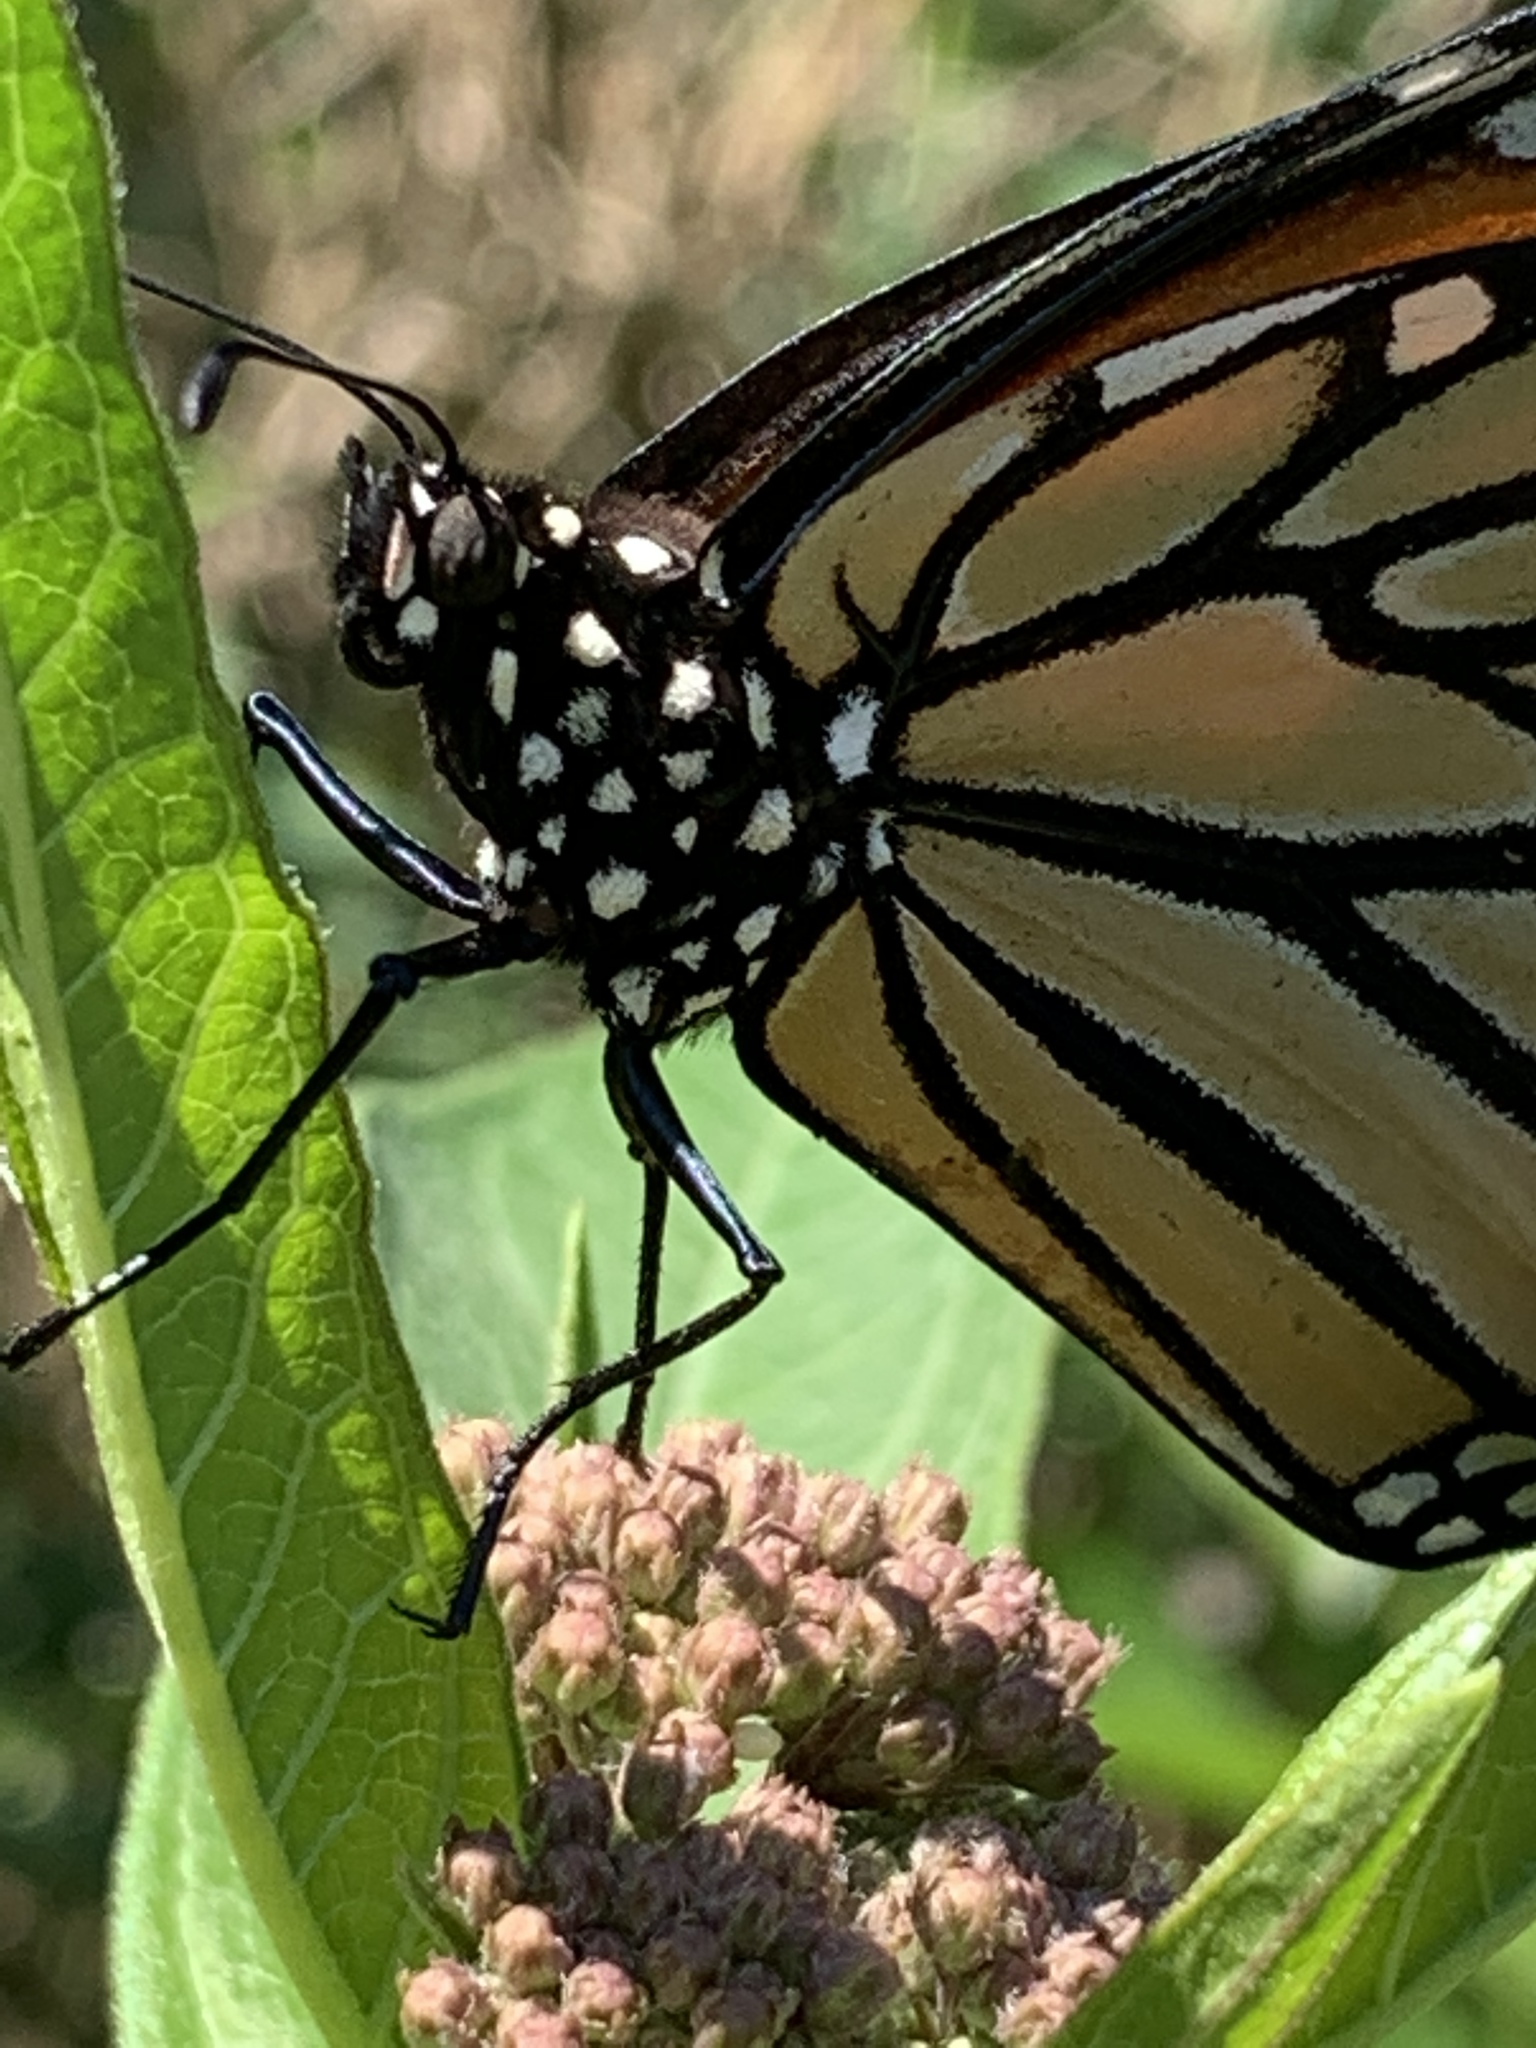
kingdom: Animalia
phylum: Arthropoda
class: Insecta
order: Lepidoptera
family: Nymphalidae
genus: Danaus
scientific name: Danaus plexippus
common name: Monarch
